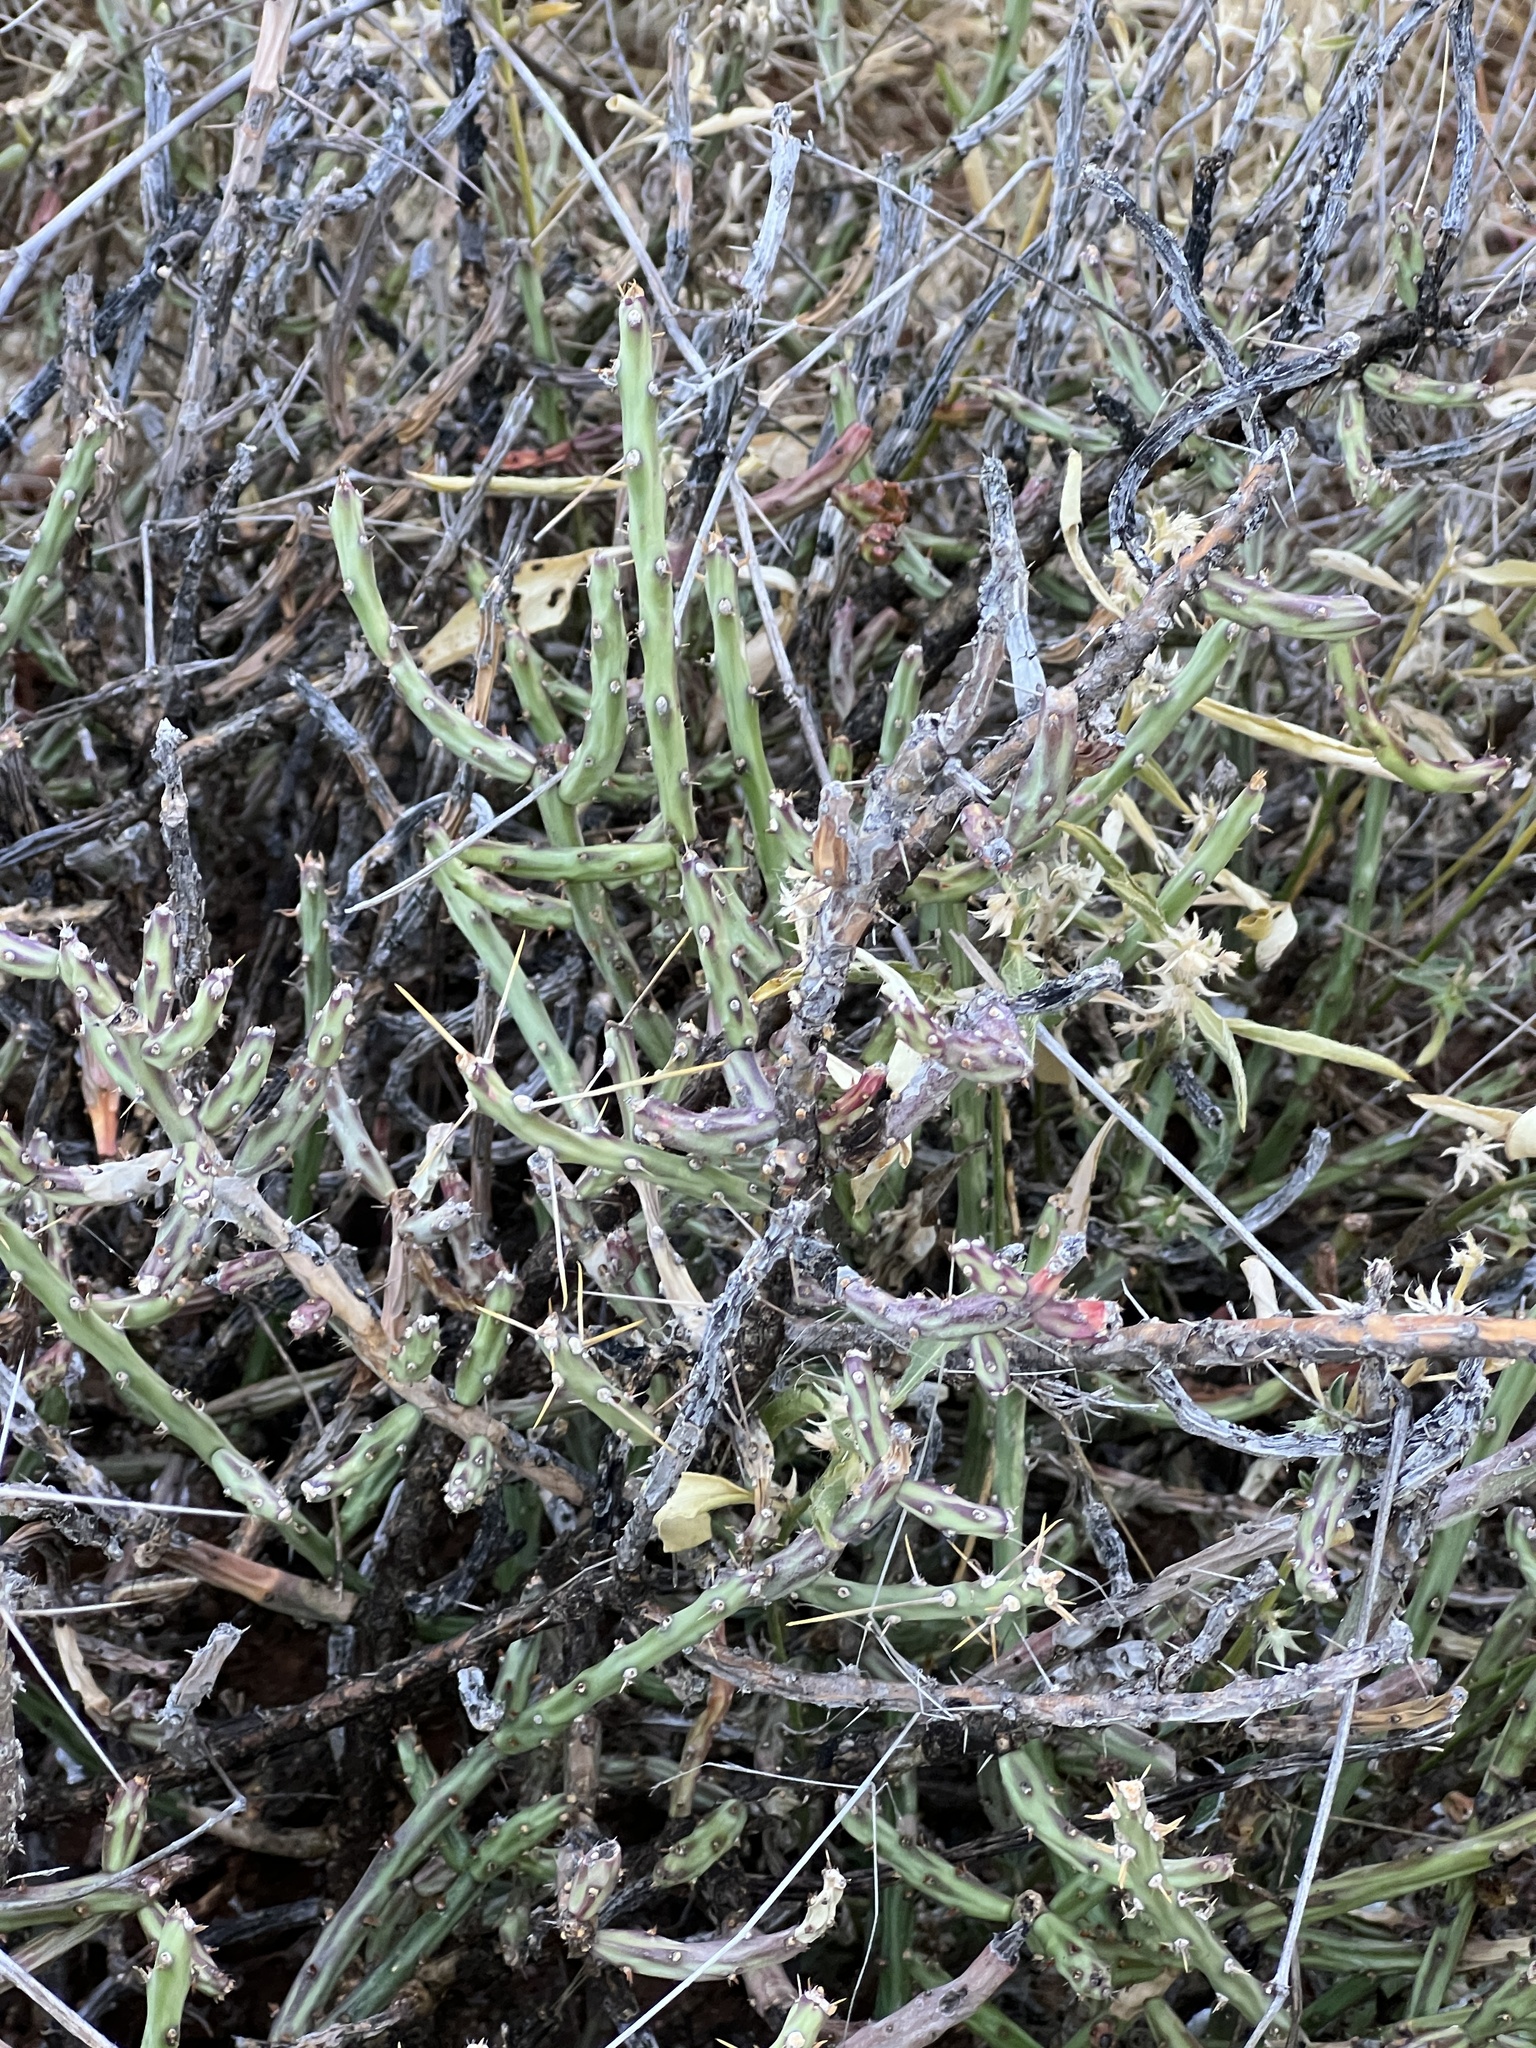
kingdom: Plantae
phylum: Tracheophyta
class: Magnoliopsida
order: Caryophyllales
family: Cactaceae
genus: Cylindropuntia
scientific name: Cylindropuntia leptocaulis
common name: Christmas cactus
